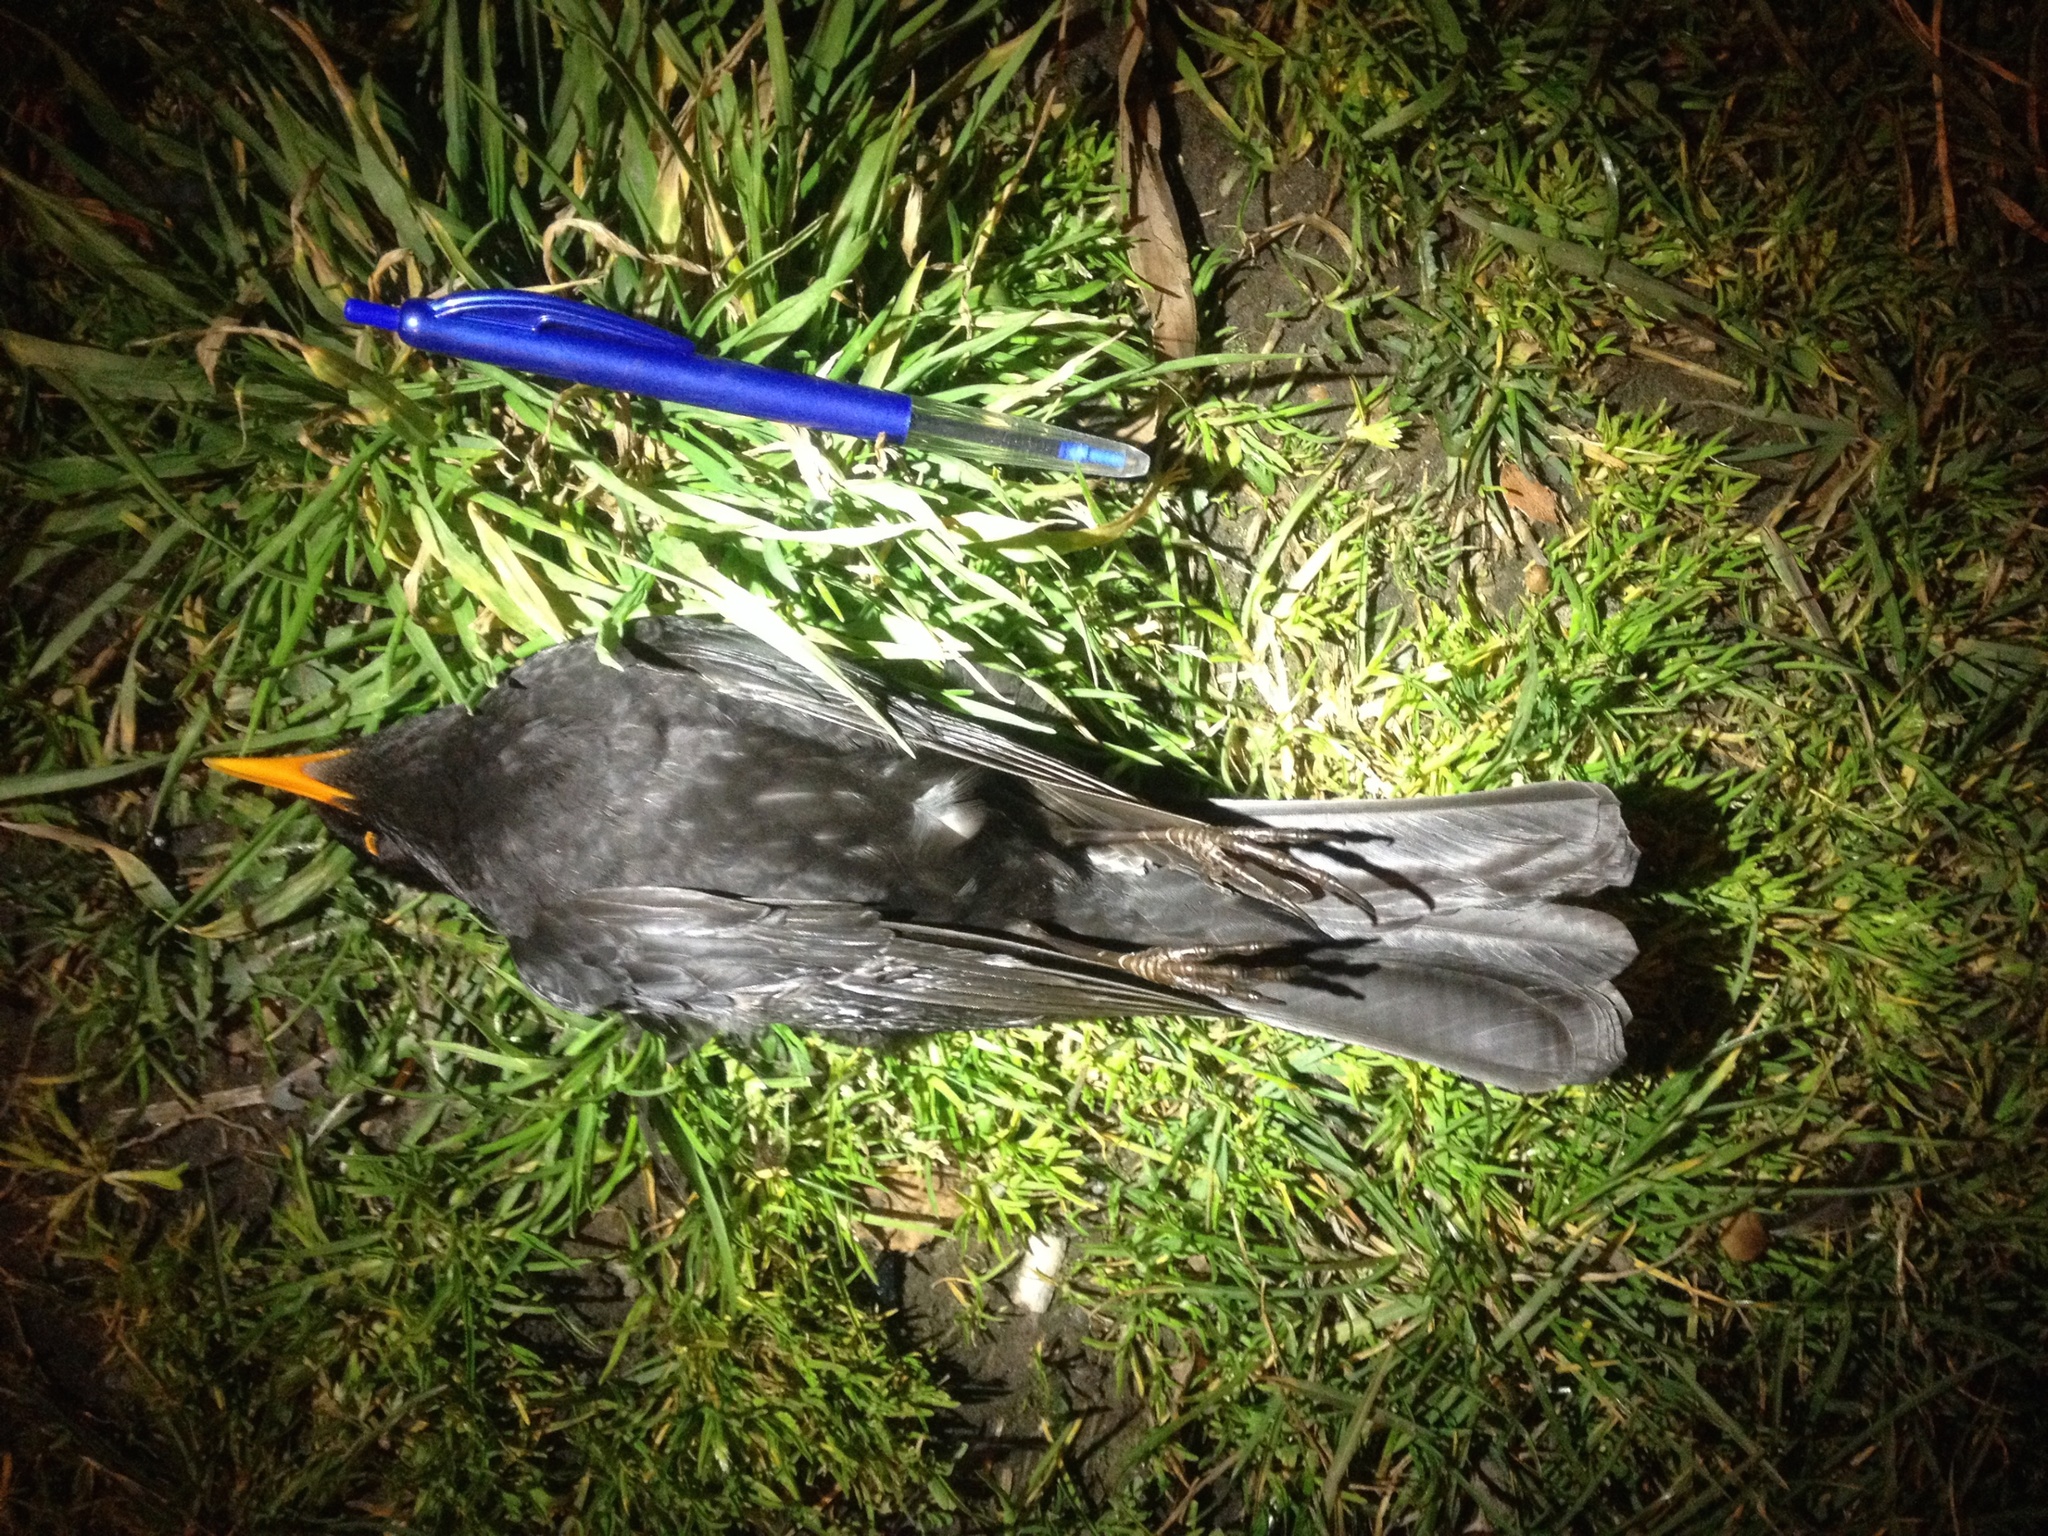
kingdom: Animalia
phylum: Chordata
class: Aves
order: Passeriformes
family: Turdidae
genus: Turdus
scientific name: Turdus merula
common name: Common blackbird
